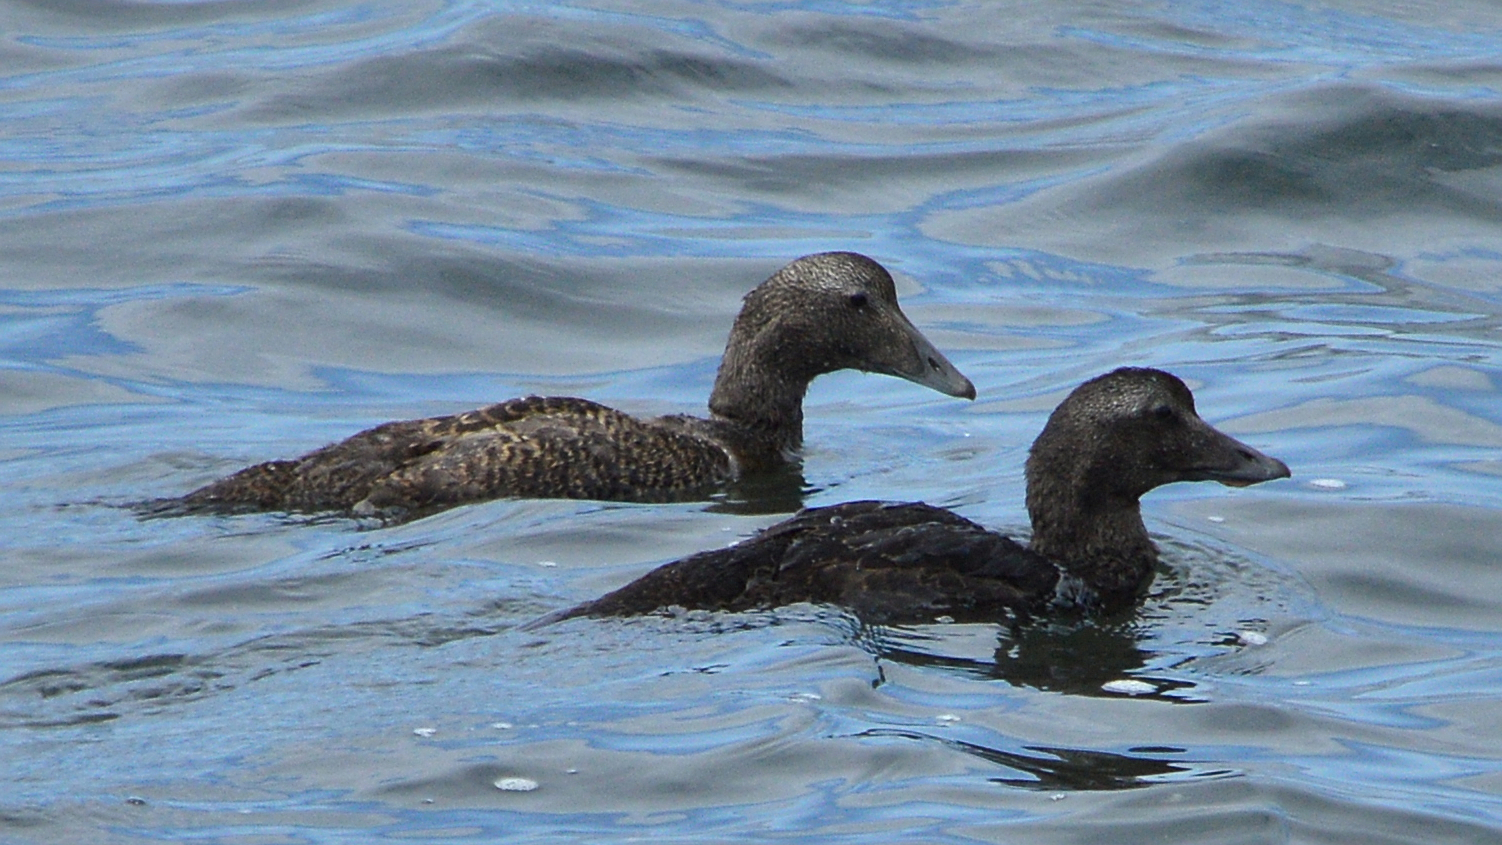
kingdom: Animalia
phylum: Chordata
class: Aves
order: Anseriformes
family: Anatidae
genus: Somateria
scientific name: Somateria mollissima
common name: Common eider
